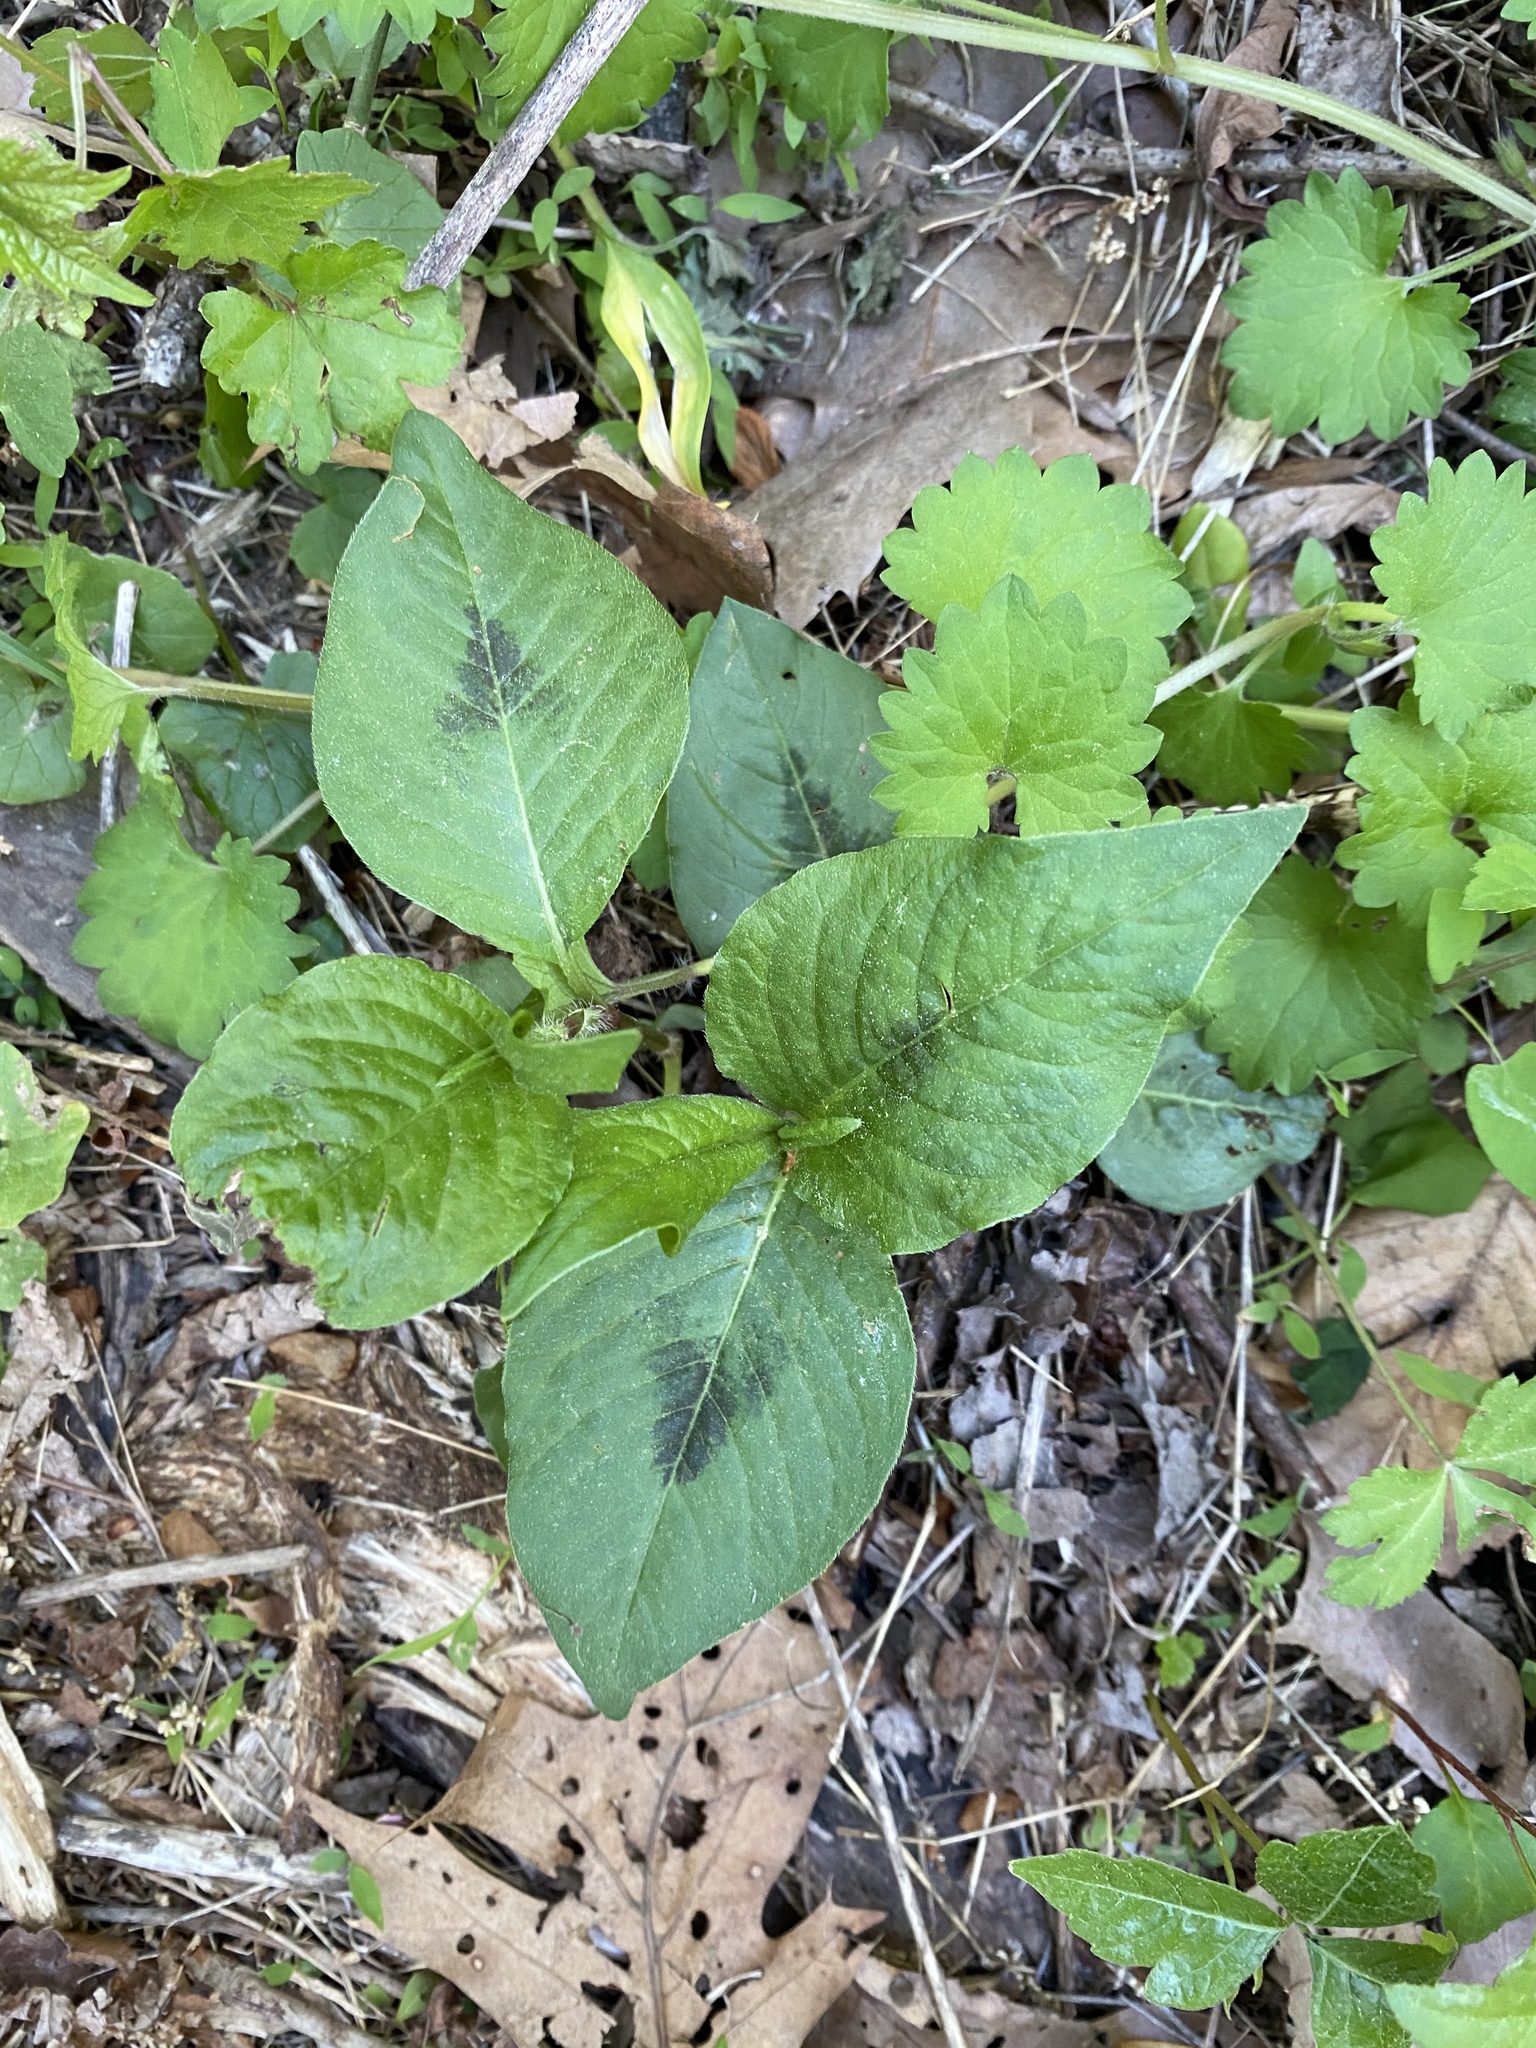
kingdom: Plantae
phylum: Tracheophyta
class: Magnoliopsida
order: Caryophyllales
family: Polygonaceae
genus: Persicaria
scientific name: Persicaria virginiana
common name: Jumpseed
